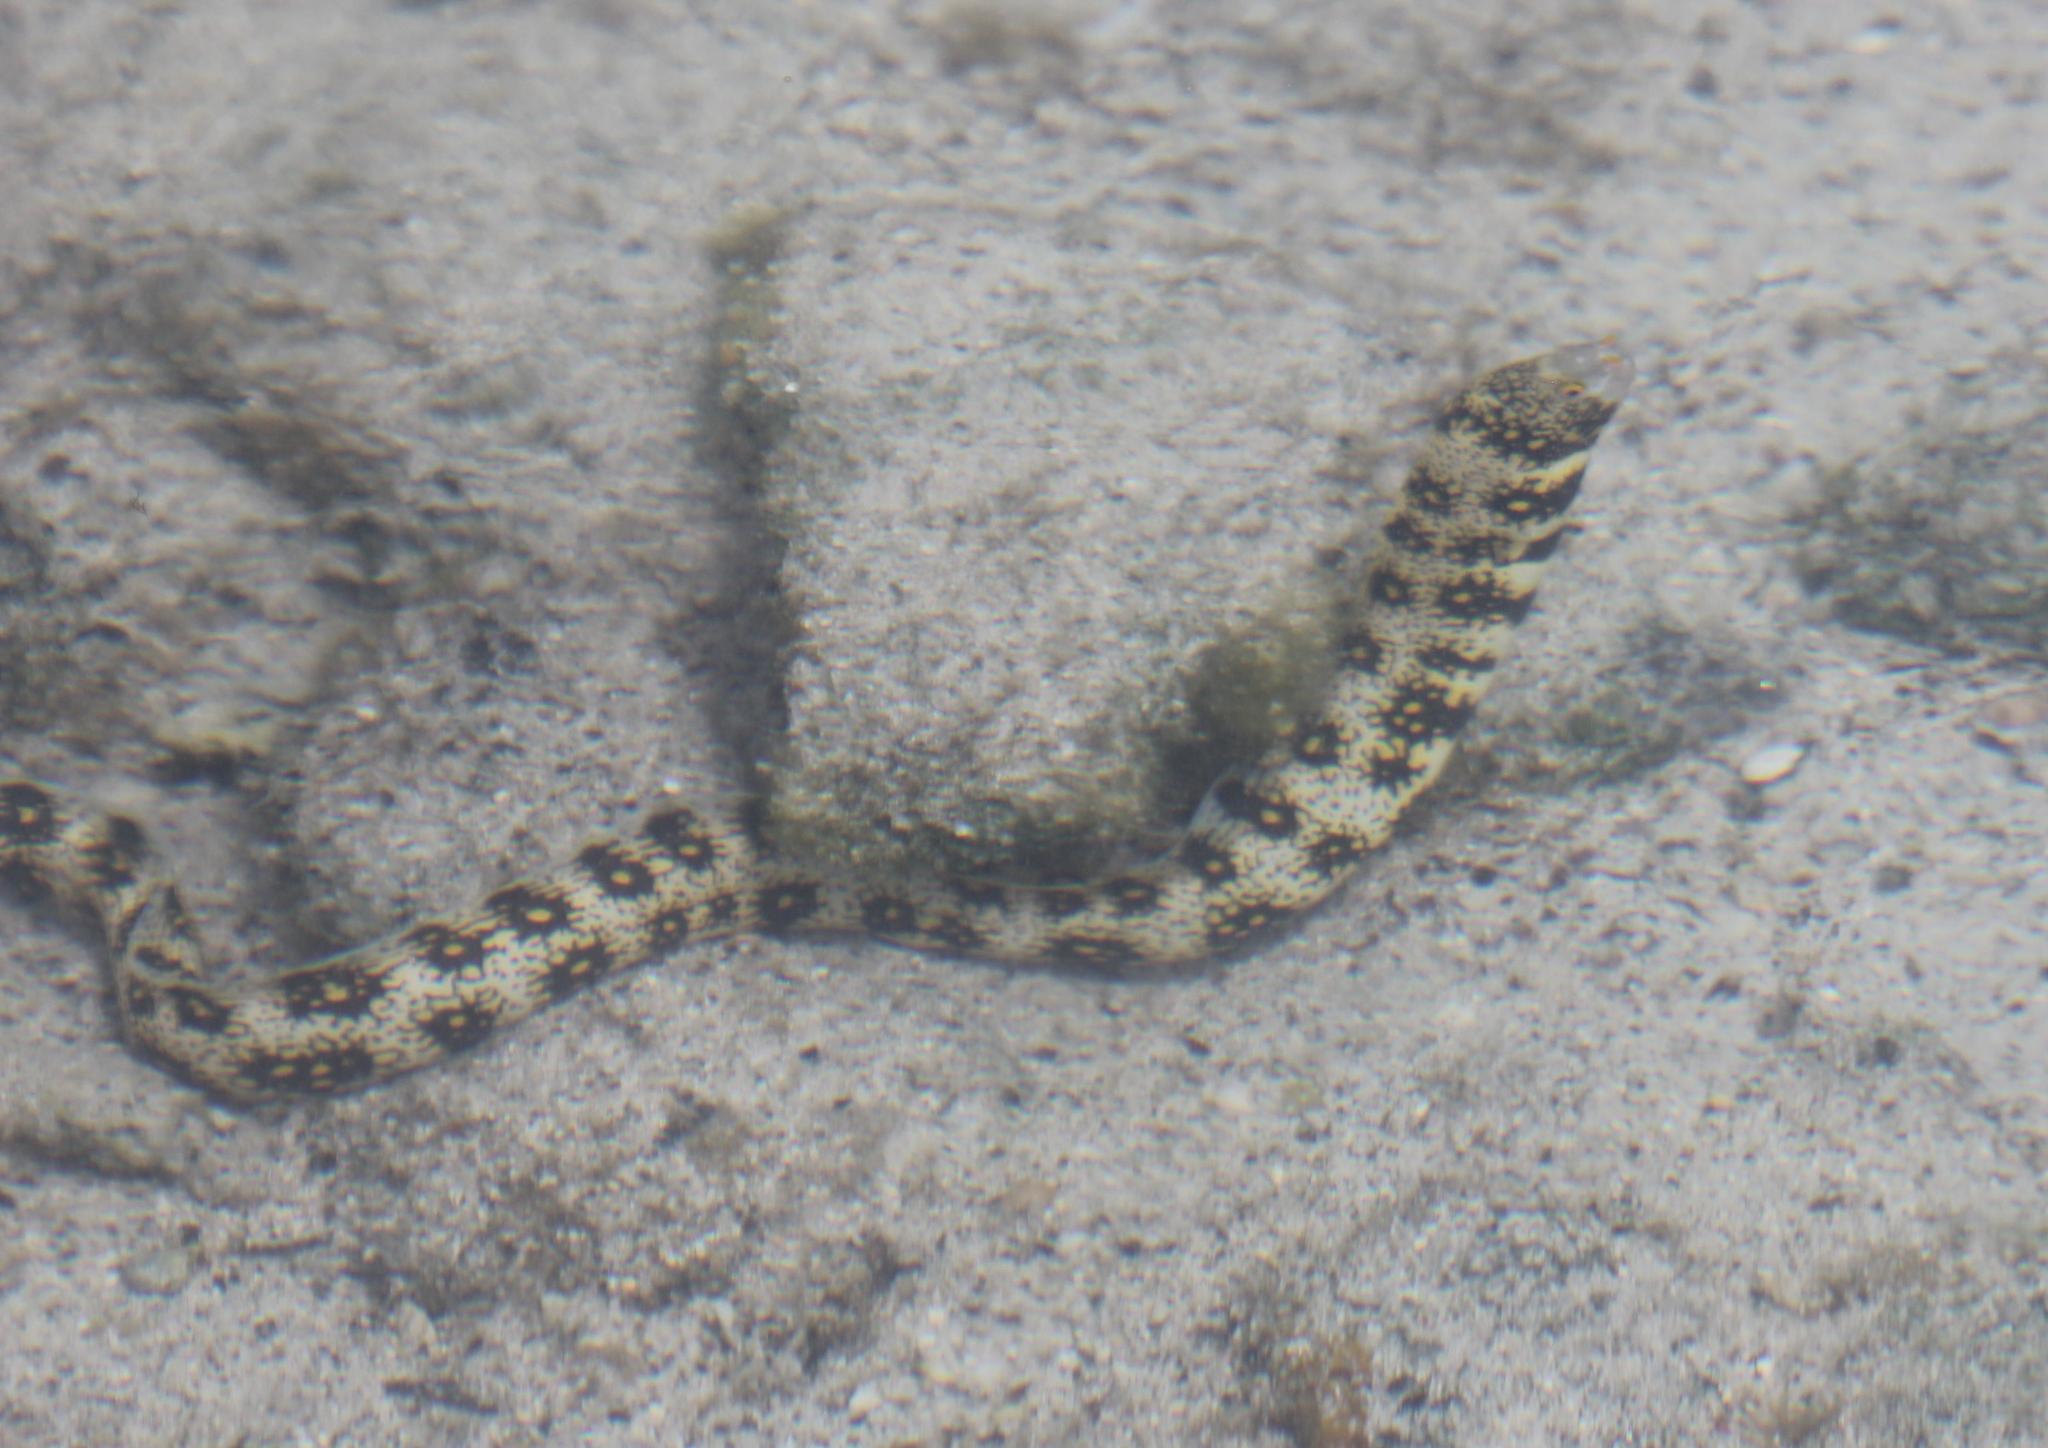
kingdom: Animalia
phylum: Chordata
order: Anguilliformes
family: Muraenidae
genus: Echidna
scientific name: Echidna nebulosa
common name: Snowflake moray
